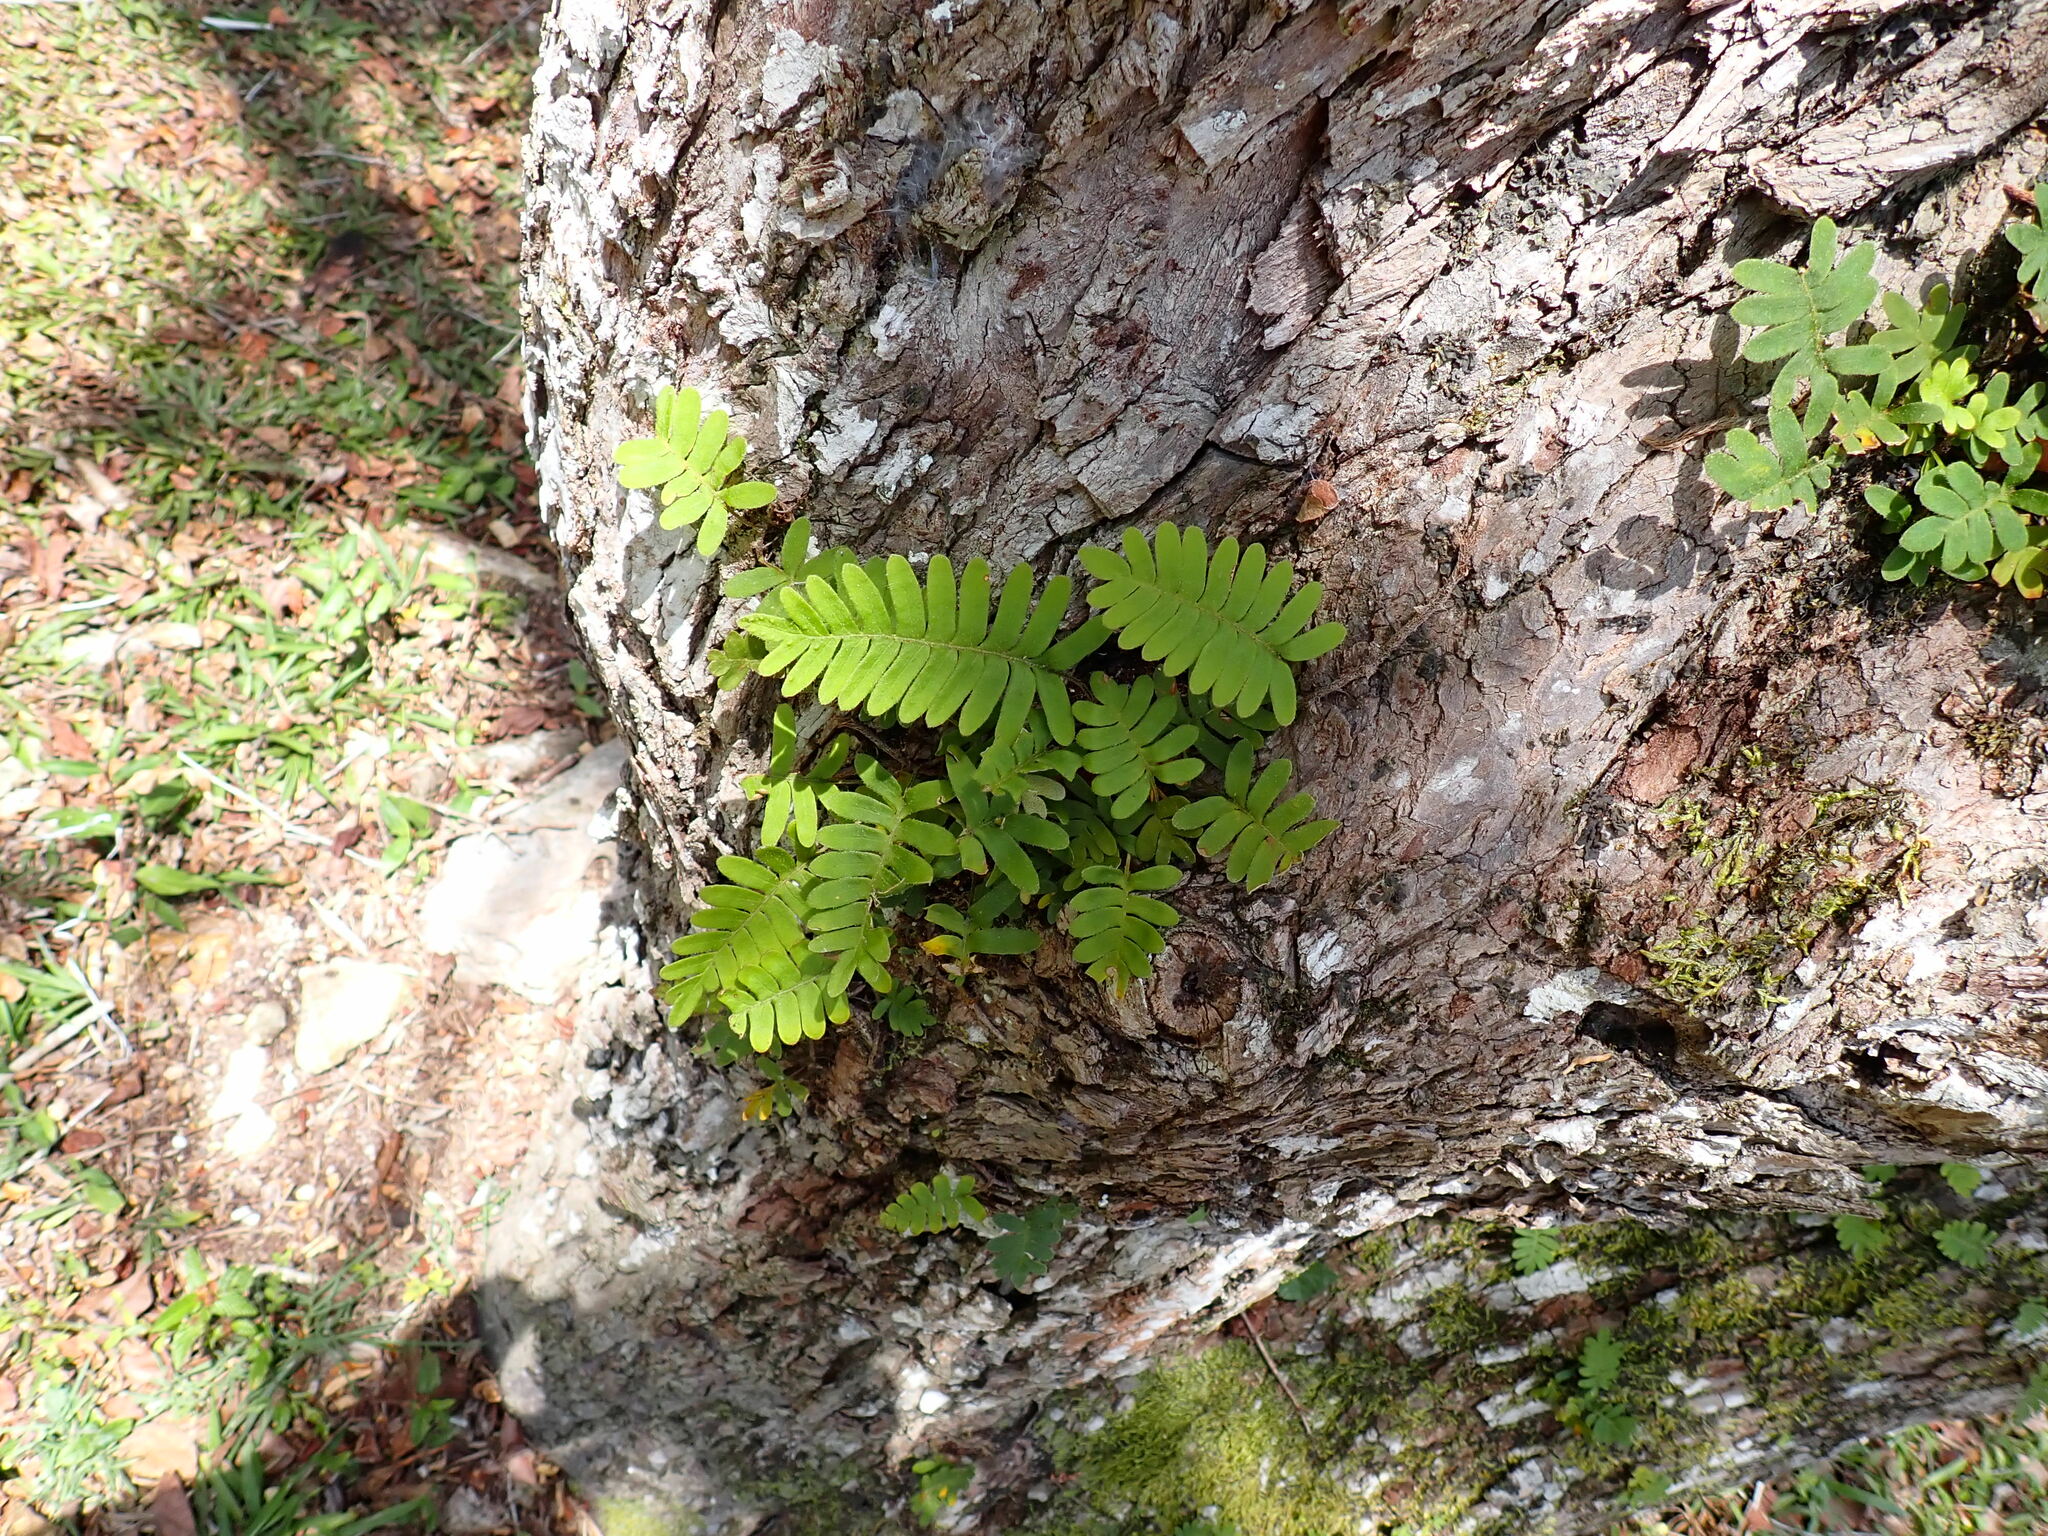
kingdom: Plantae
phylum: Tracheophyta
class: Polypodiopsida
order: Polypodiales
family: Polypodiaceae
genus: Pleopeltis
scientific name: Pleopeltis polypodioides
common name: Resurrection fern
